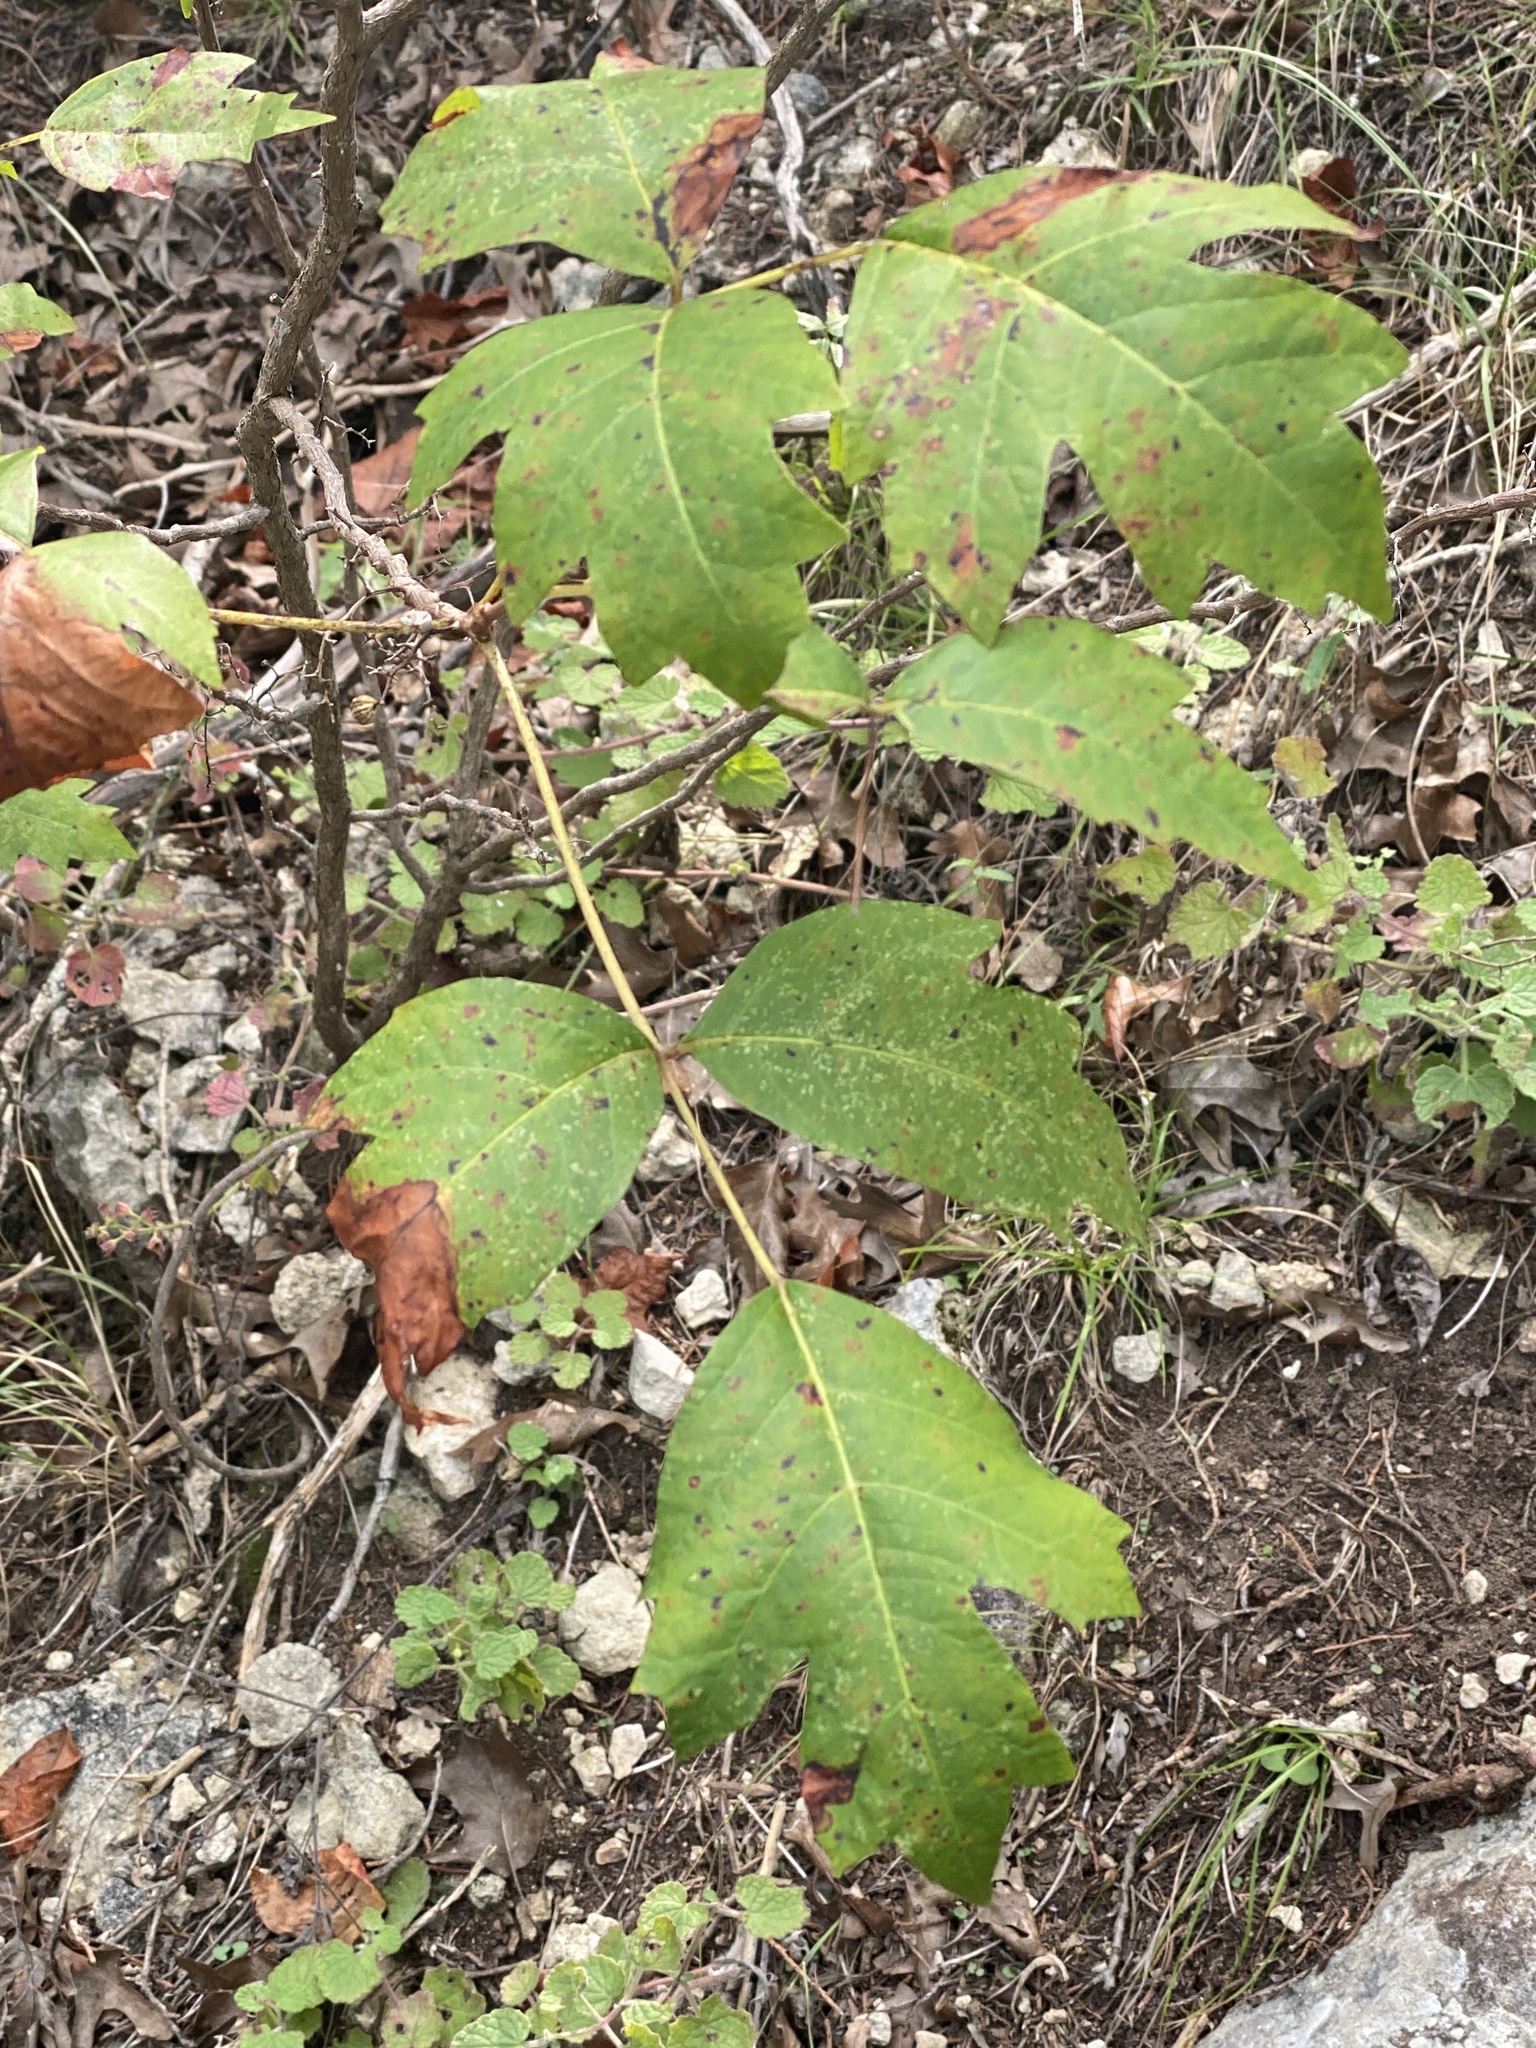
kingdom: Plantae
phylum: Tracheophyta
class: Magnoliopsida
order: Sapindales
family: Anacardiaceae
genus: Toxicodendron
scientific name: Toxicodendron radicans
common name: Poison ivy
